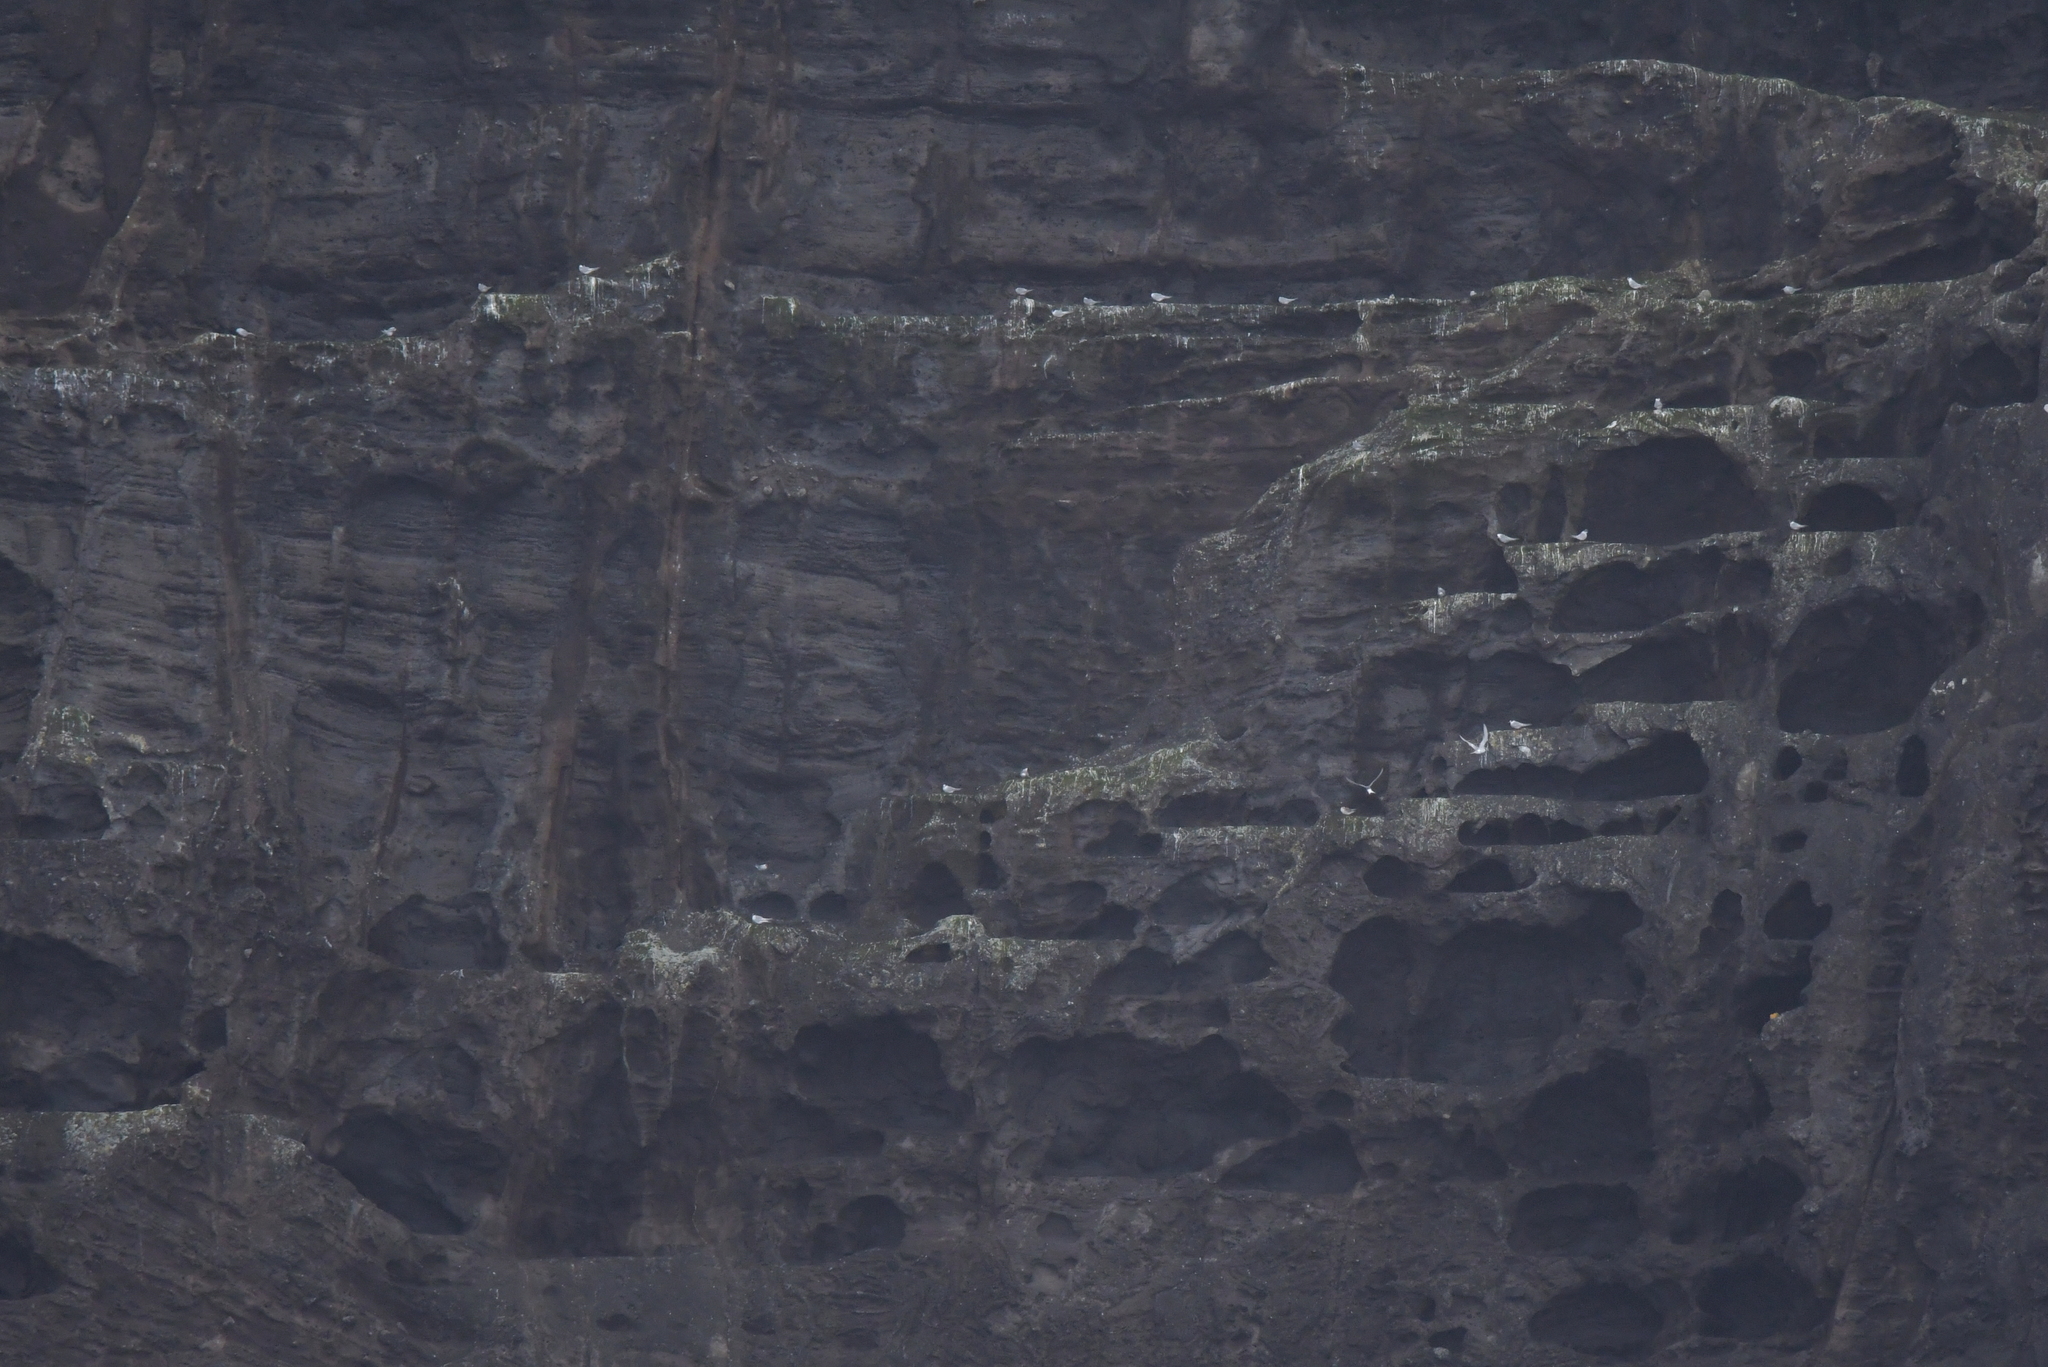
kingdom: Animalia
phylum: Chordata
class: Aves
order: Charadriiformes
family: Laridae
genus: Sterna
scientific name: Sterna vittata
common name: Antarctic tern
